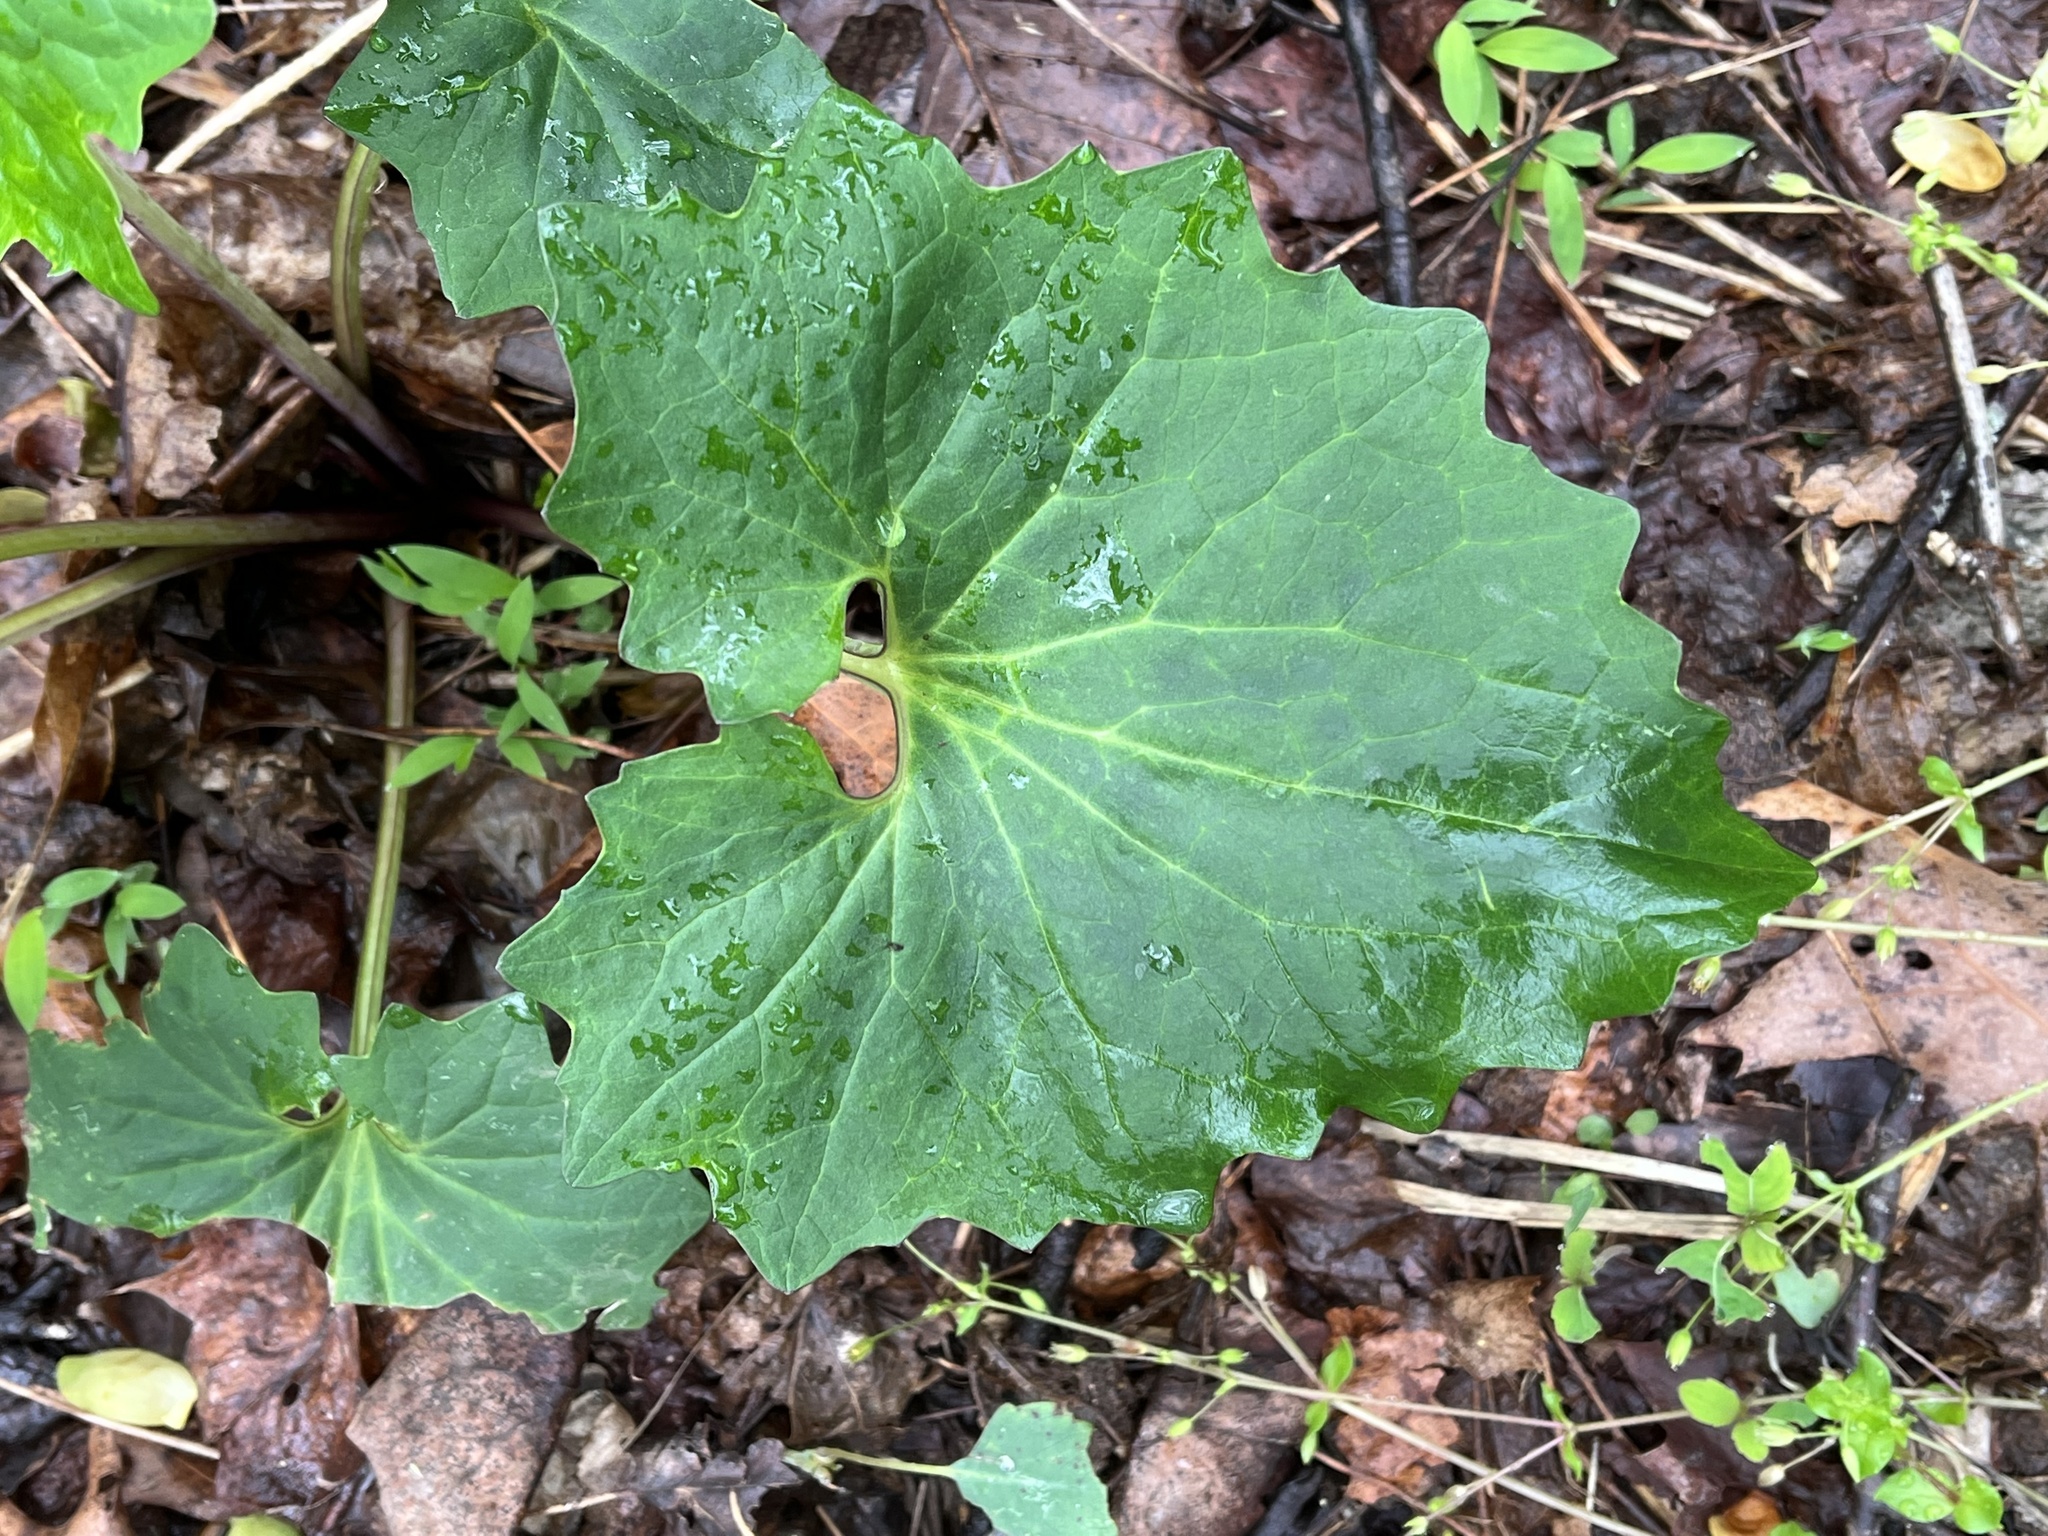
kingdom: Plantae
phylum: Tracheophyta
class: Magnoliopsida
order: Asterales
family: Asteraceae
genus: Arnoglossum
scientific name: Arnoglossum atriplicifolium
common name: Pale indian-plantain
